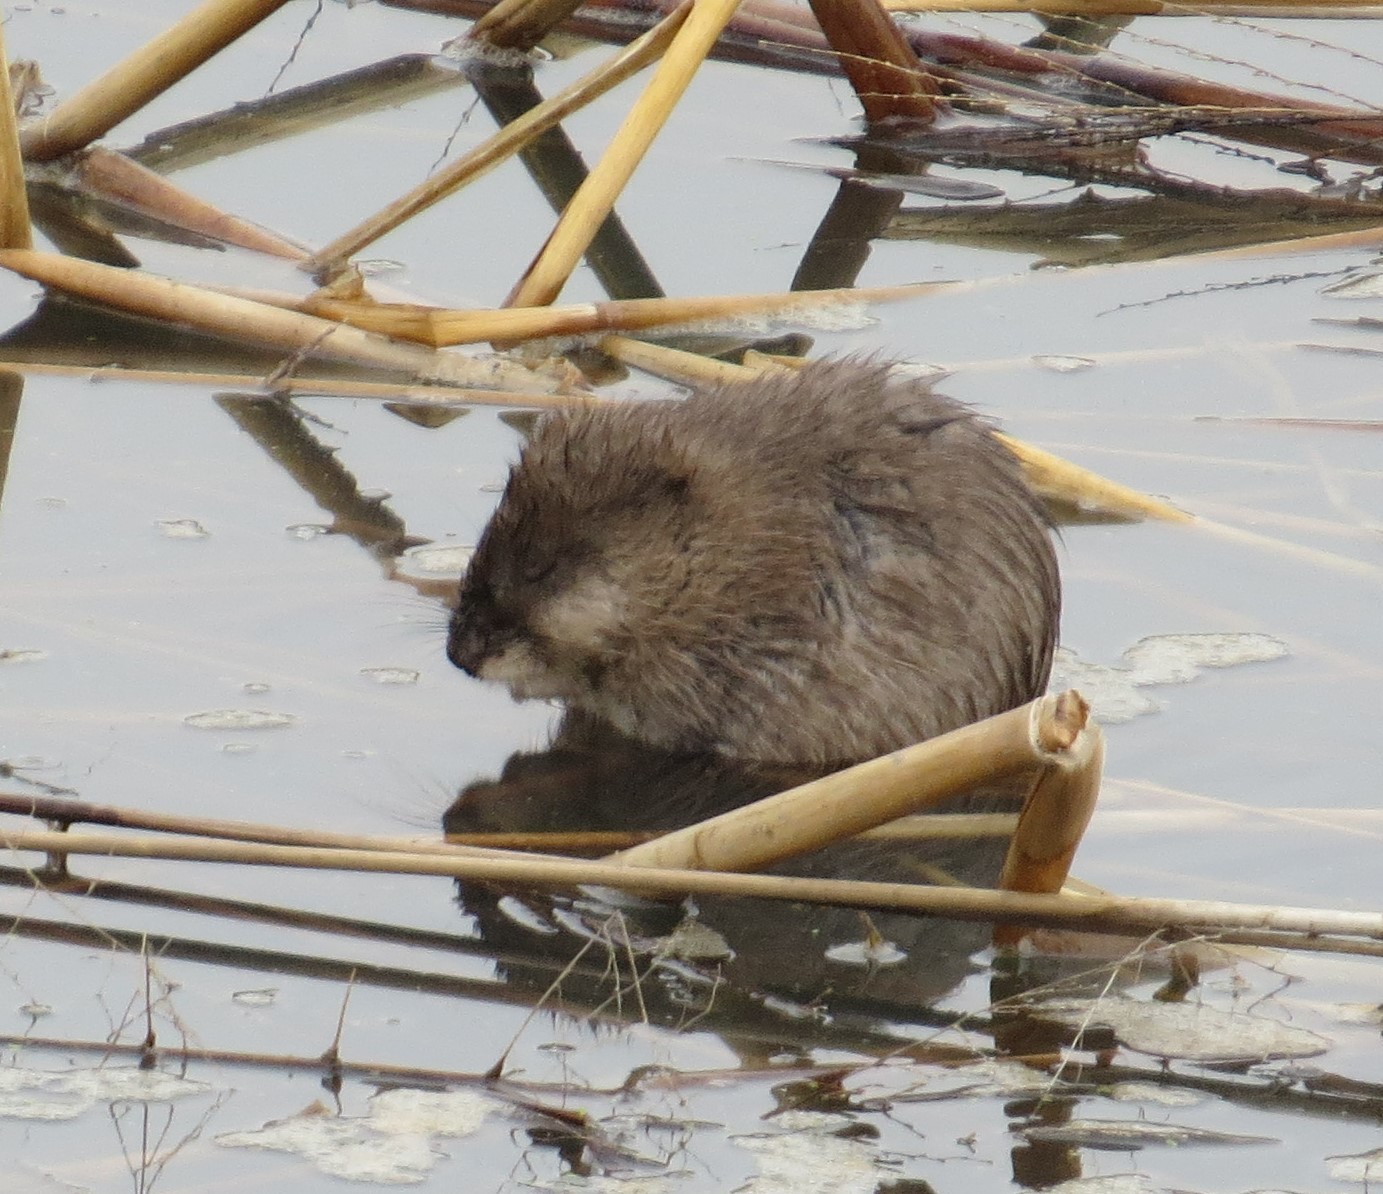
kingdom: Animalia
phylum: Chordata
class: Mammalia
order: Rodentia
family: Cricetidae
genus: Ondatra
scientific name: Ondatra zibethicus
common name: Muskrat
